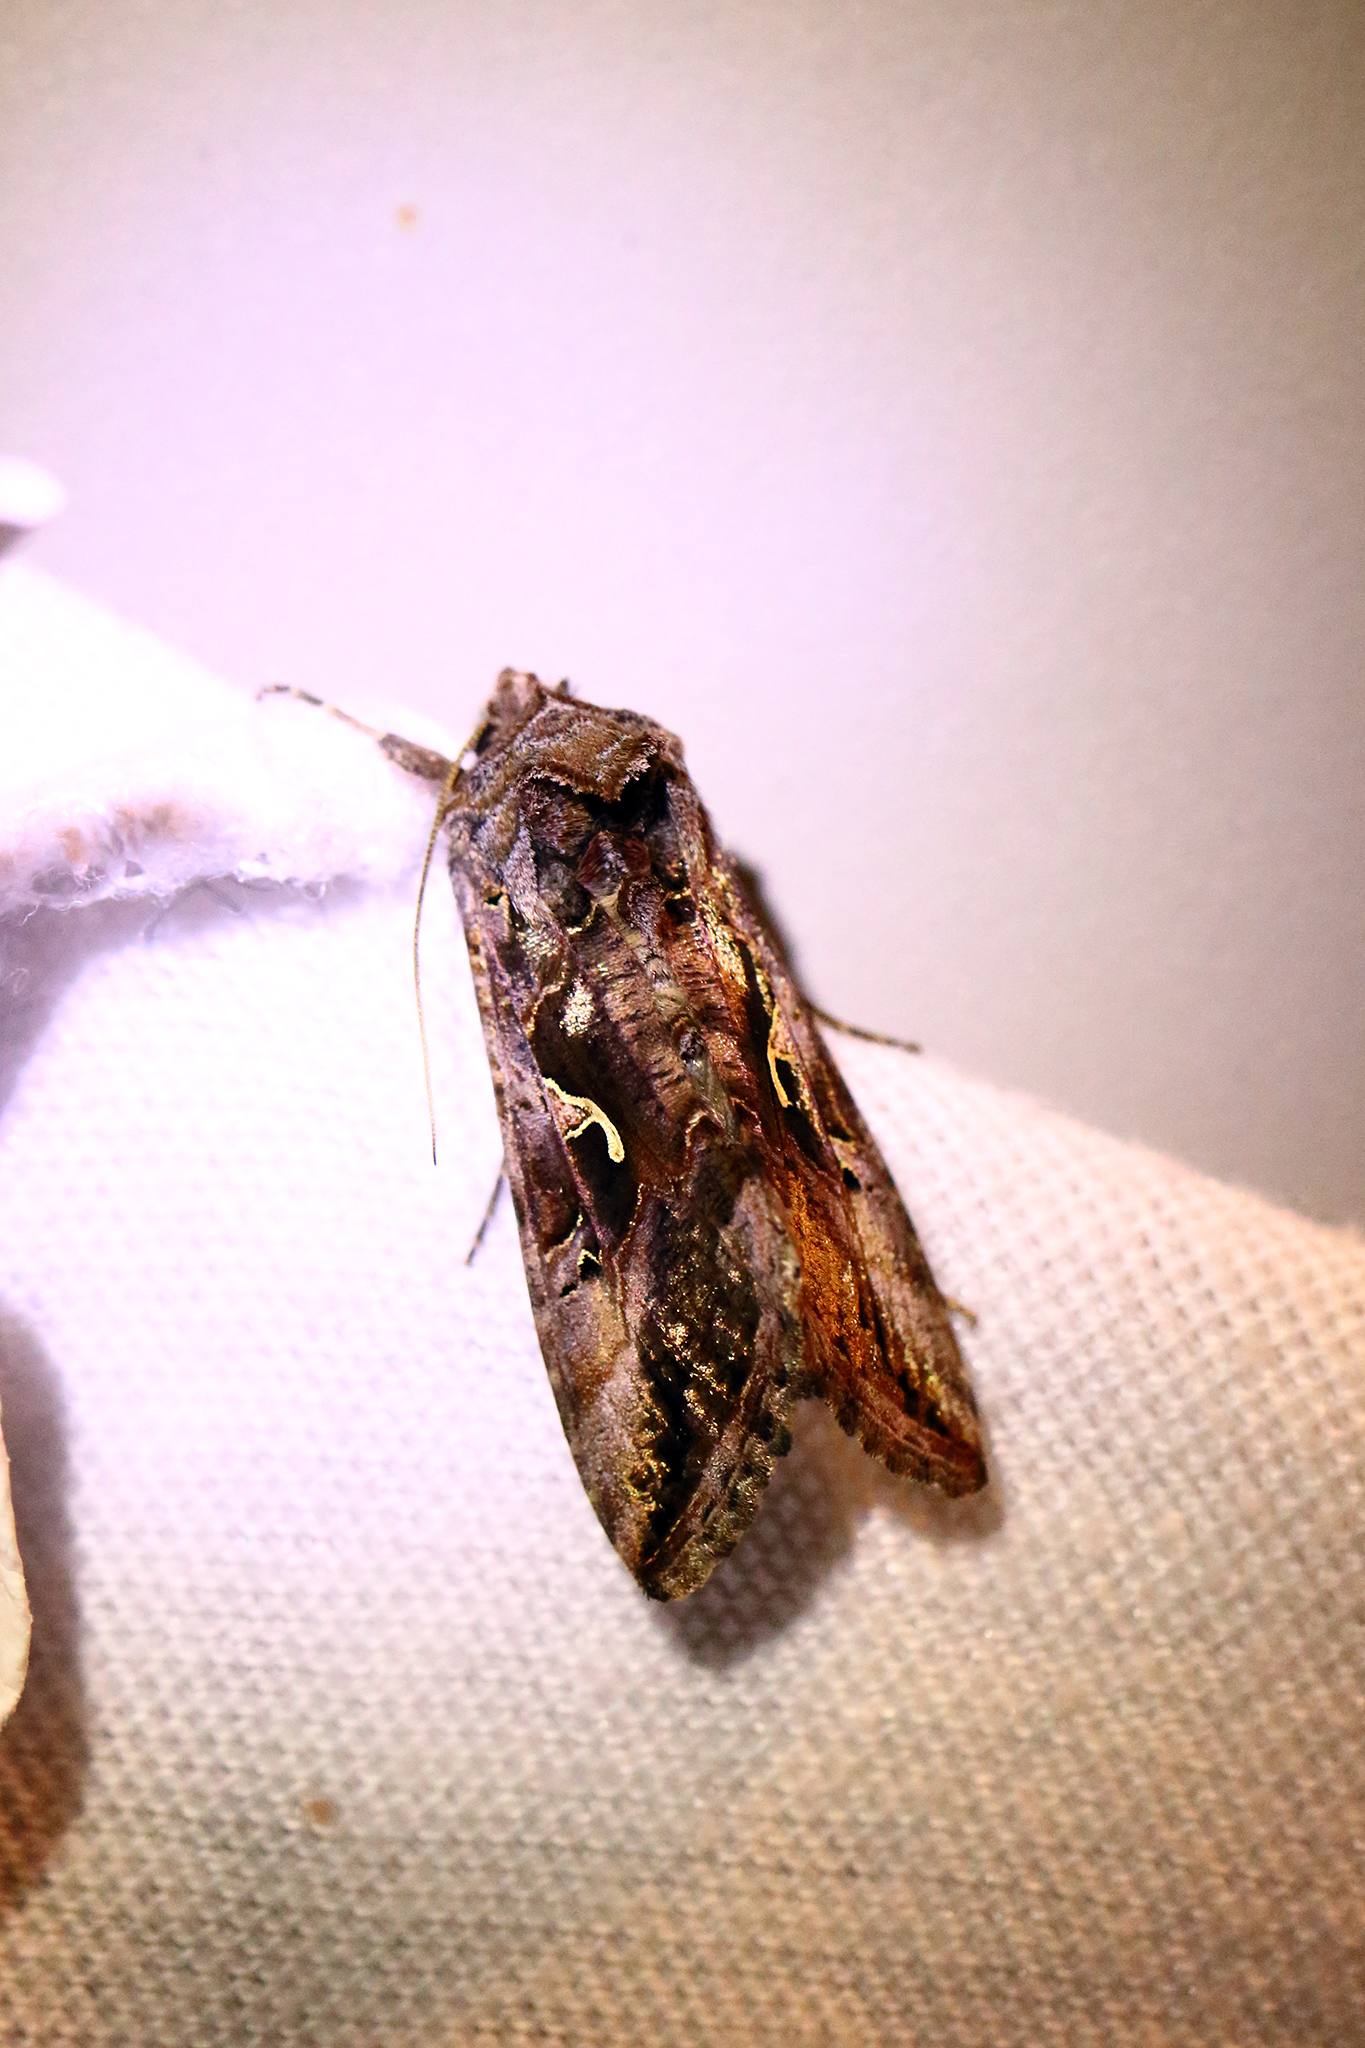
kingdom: Animalia
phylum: Arthropoda
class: Insecta
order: Lepidoptera
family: Noctuidae
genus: Autographa
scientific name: Autographa gamma
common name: Silver y
